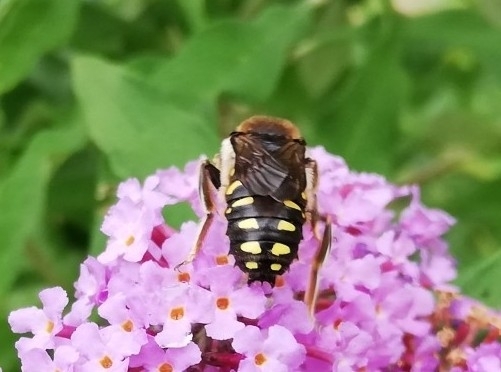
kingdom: Animalia
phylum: Arthropoda
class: Insecta
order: Hymenoptera
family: Megachilidae
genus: Anthidium
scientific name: Anthidium septemspinosum
